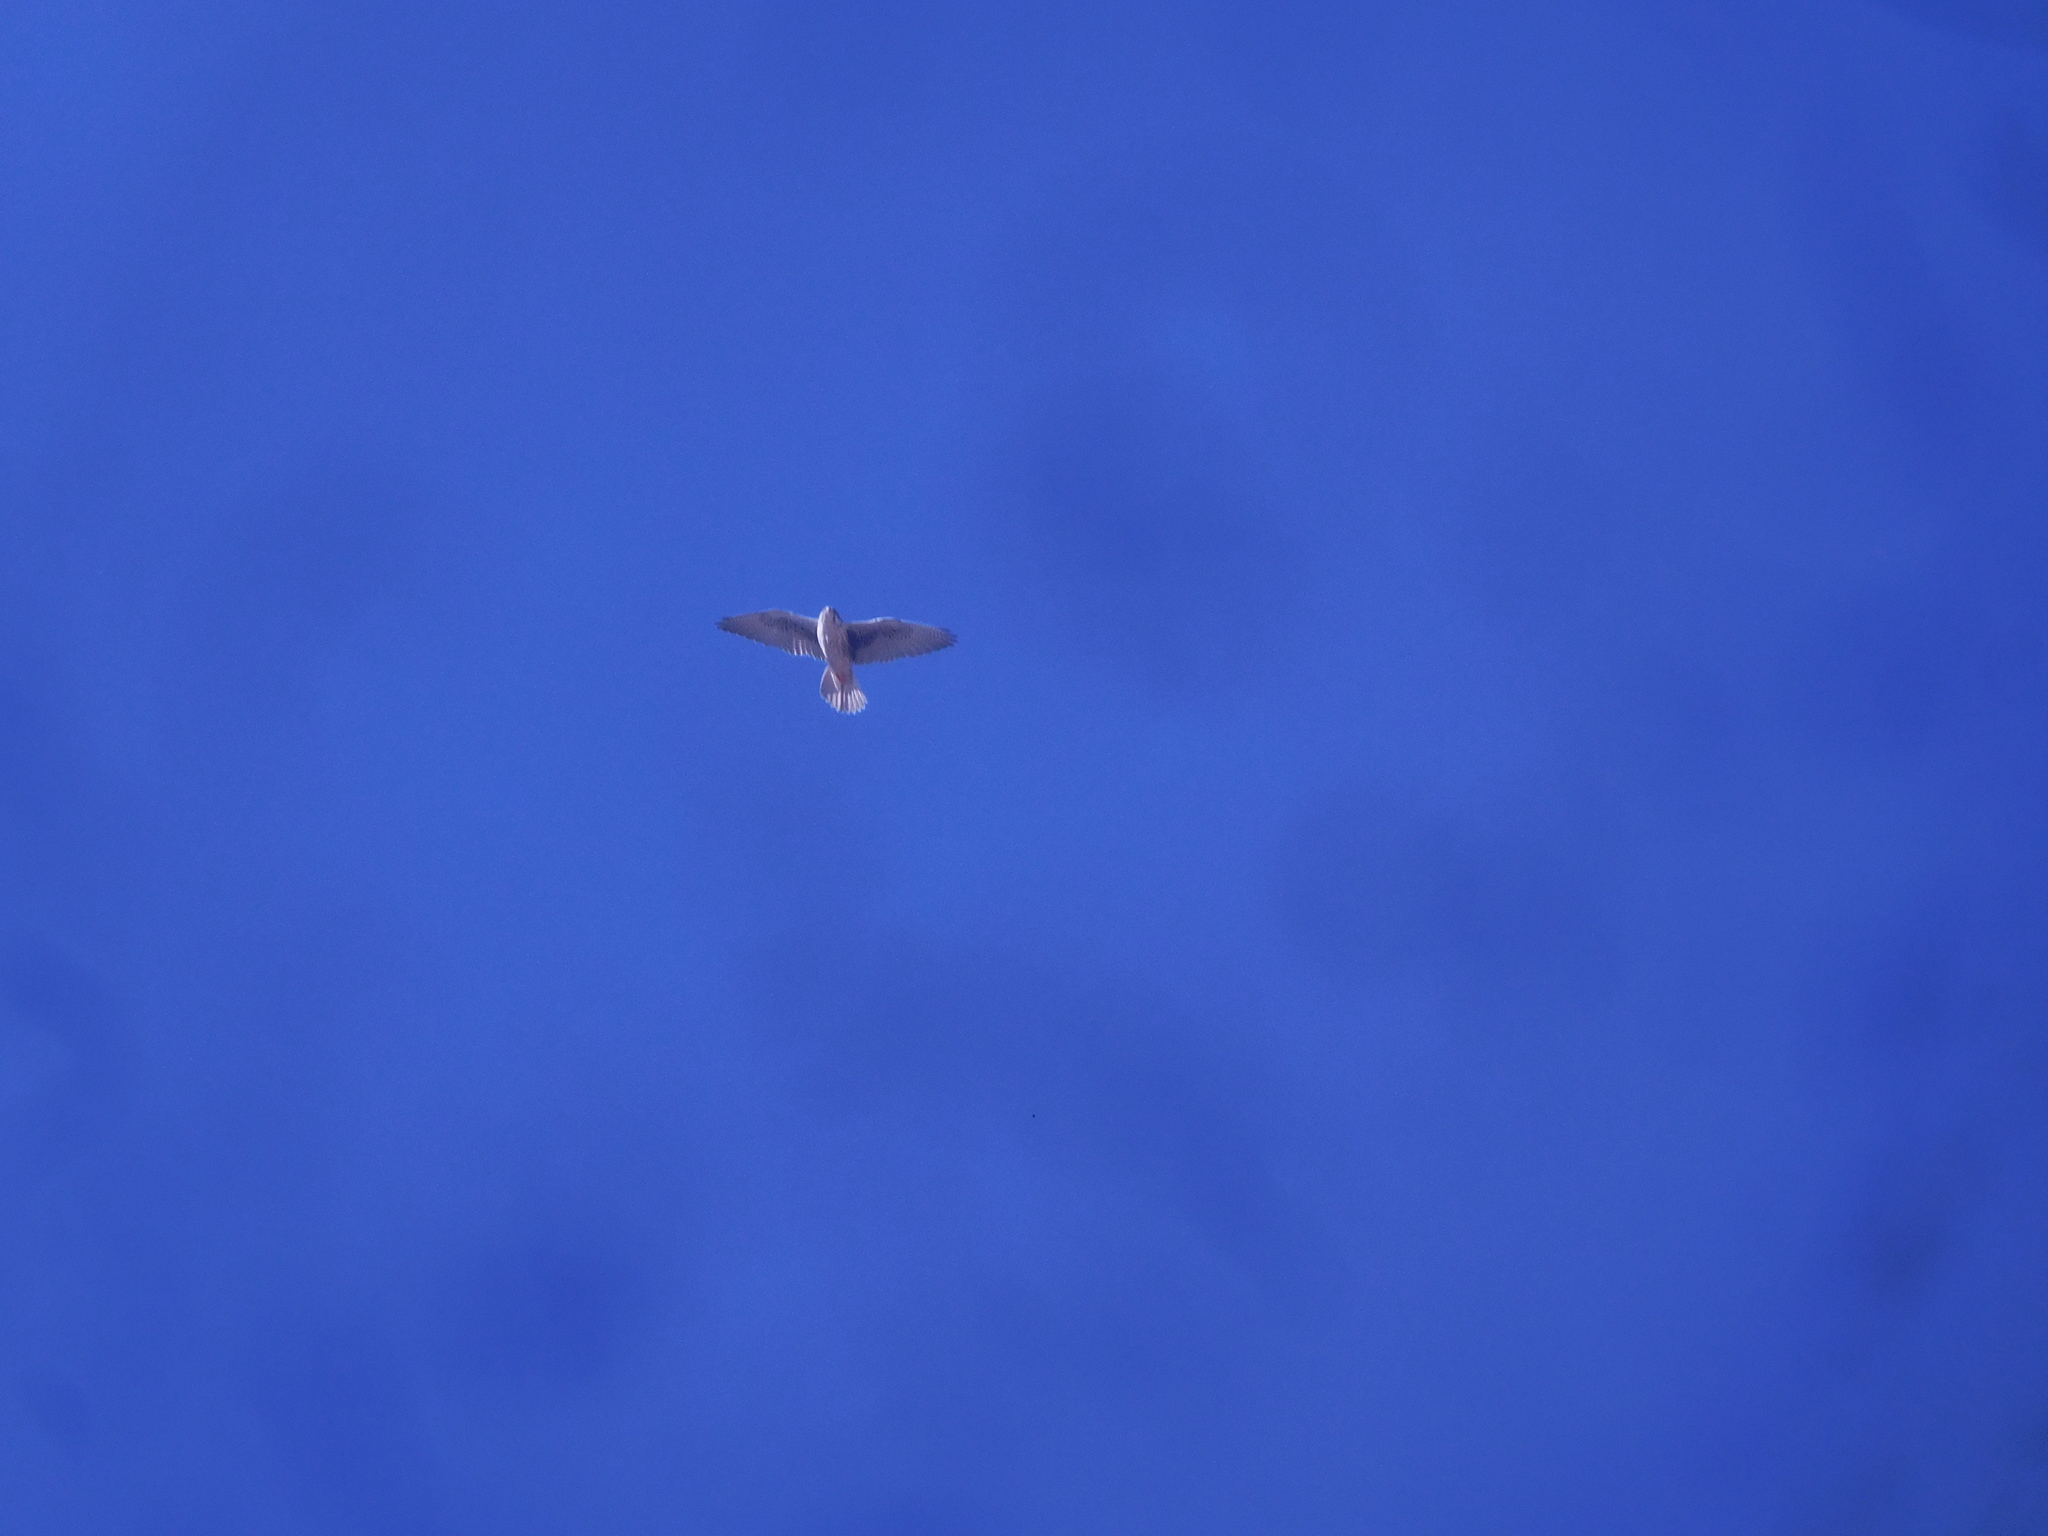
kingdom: Animalia
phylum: Chordata
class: Aves
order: Falconiformes
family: Falconidae
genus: Falco
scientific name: Falco mexicanus
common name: Prairie falcon
